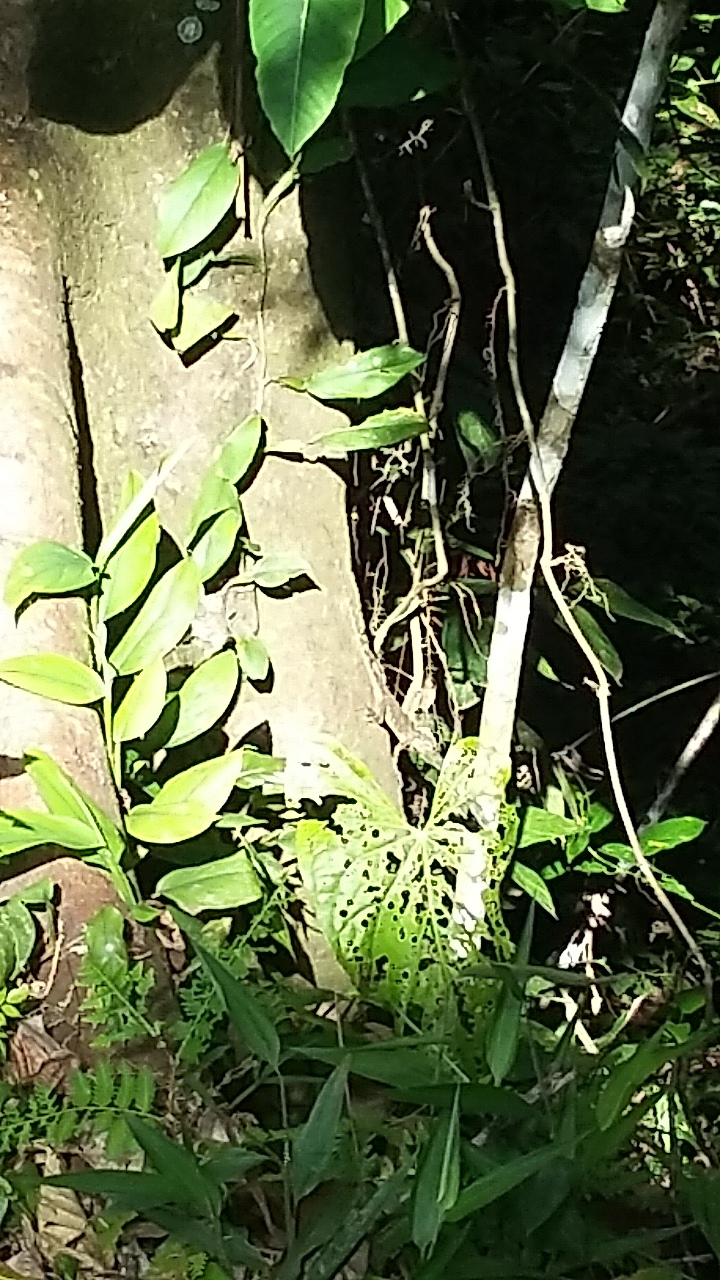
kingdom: Animalia
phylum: Chordata
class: Squamata
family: Tropiduridae
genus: Plica
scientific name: Plica plica
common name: Tree runner
